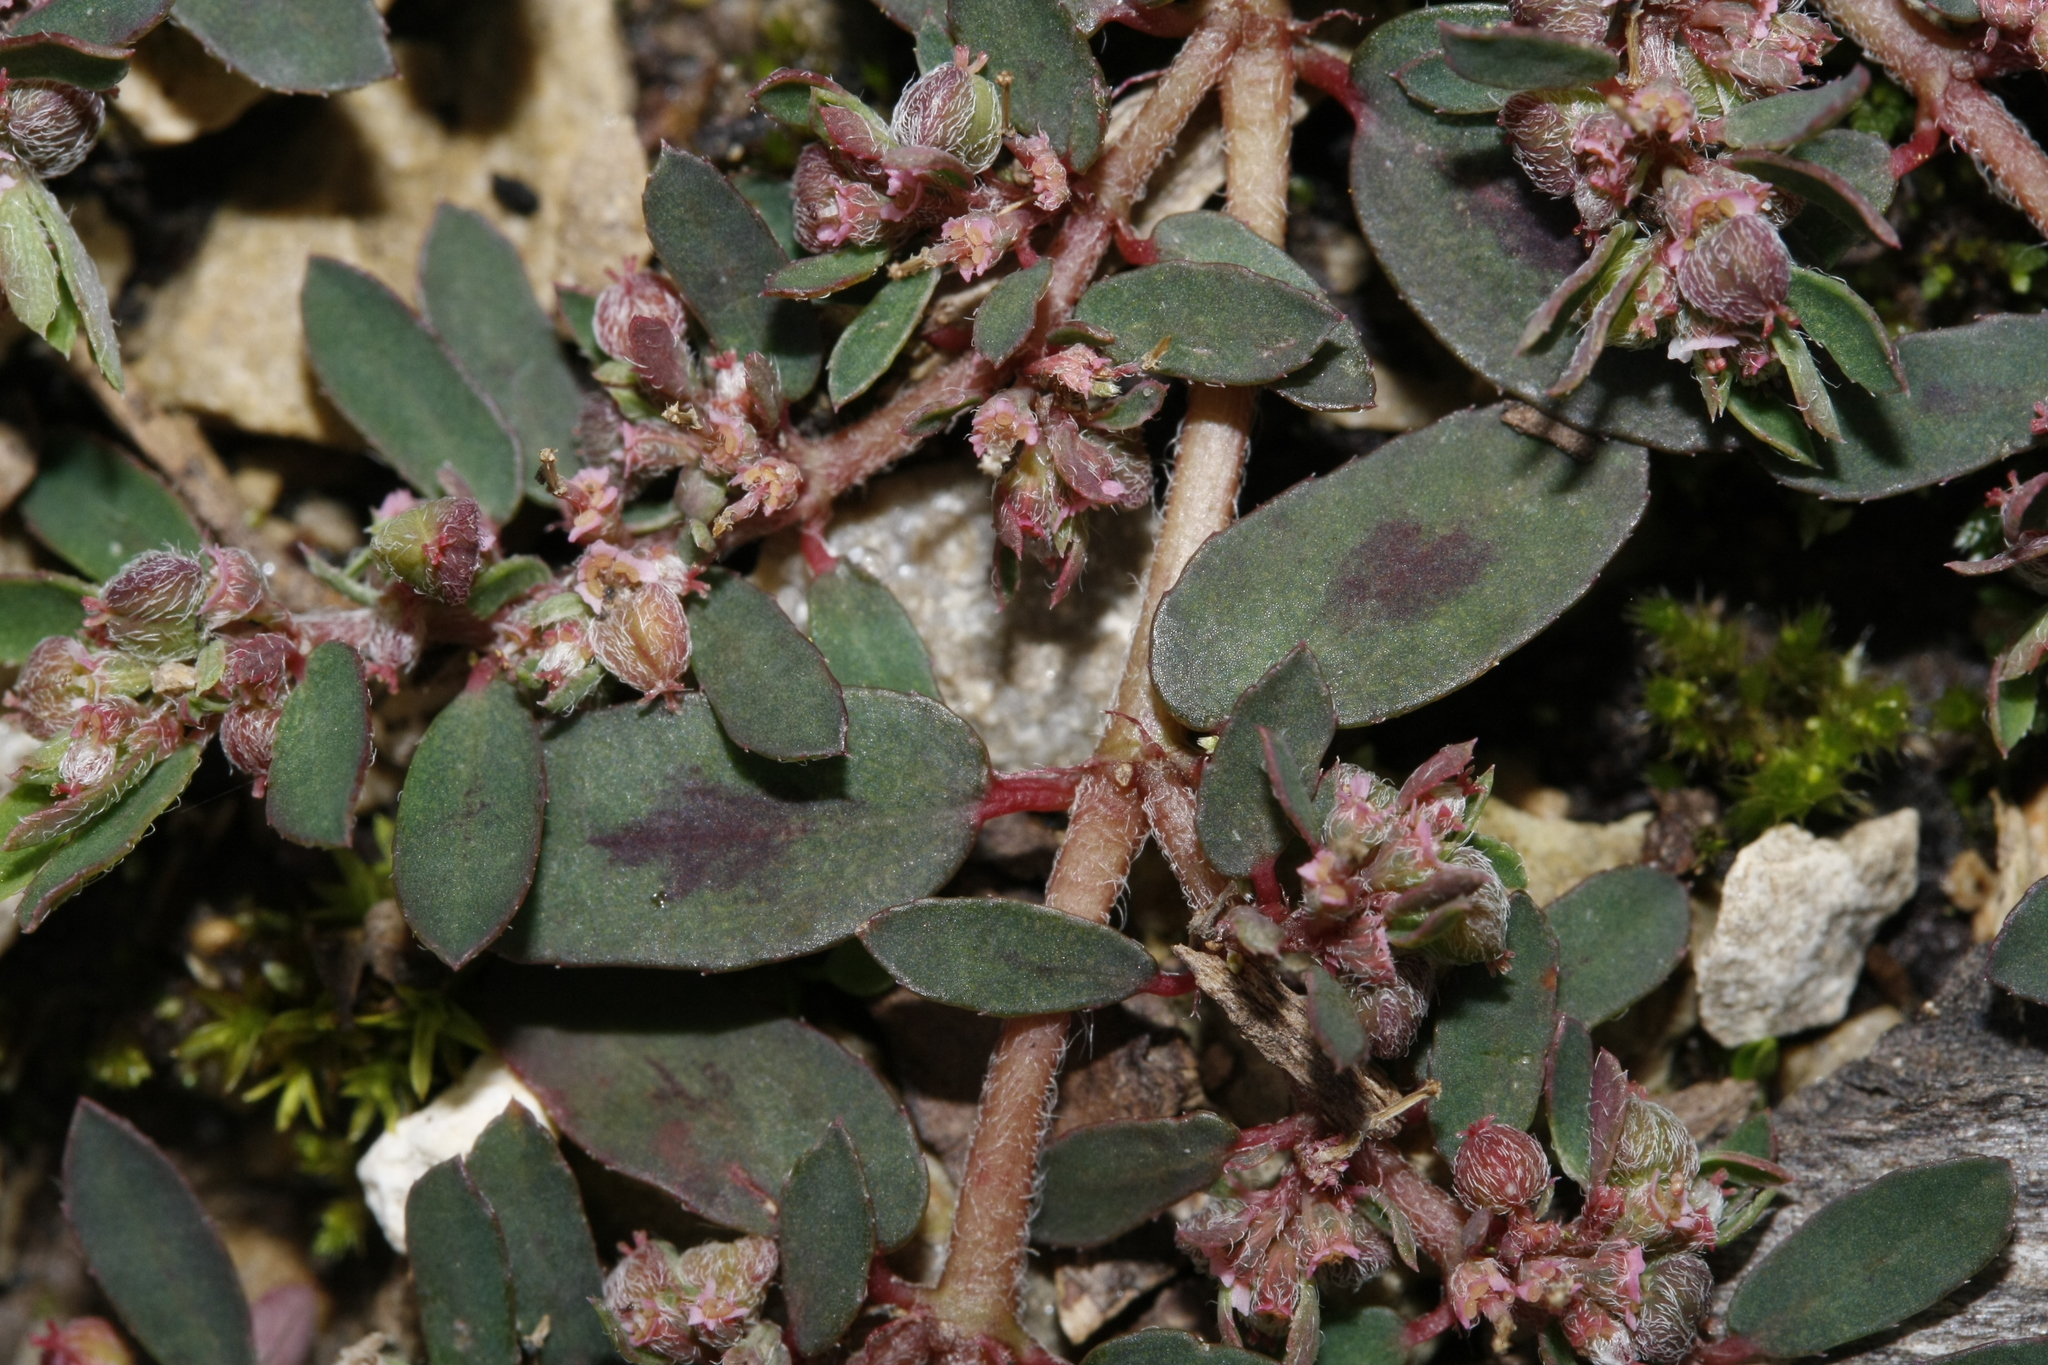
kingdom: Plantae
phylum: Tracheophyta
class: Magnoliopsida
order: Malpighiales
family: Euphorbiaceae
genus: Euphorbia
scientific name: Euphorbia maculata
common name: Spotted spurge
